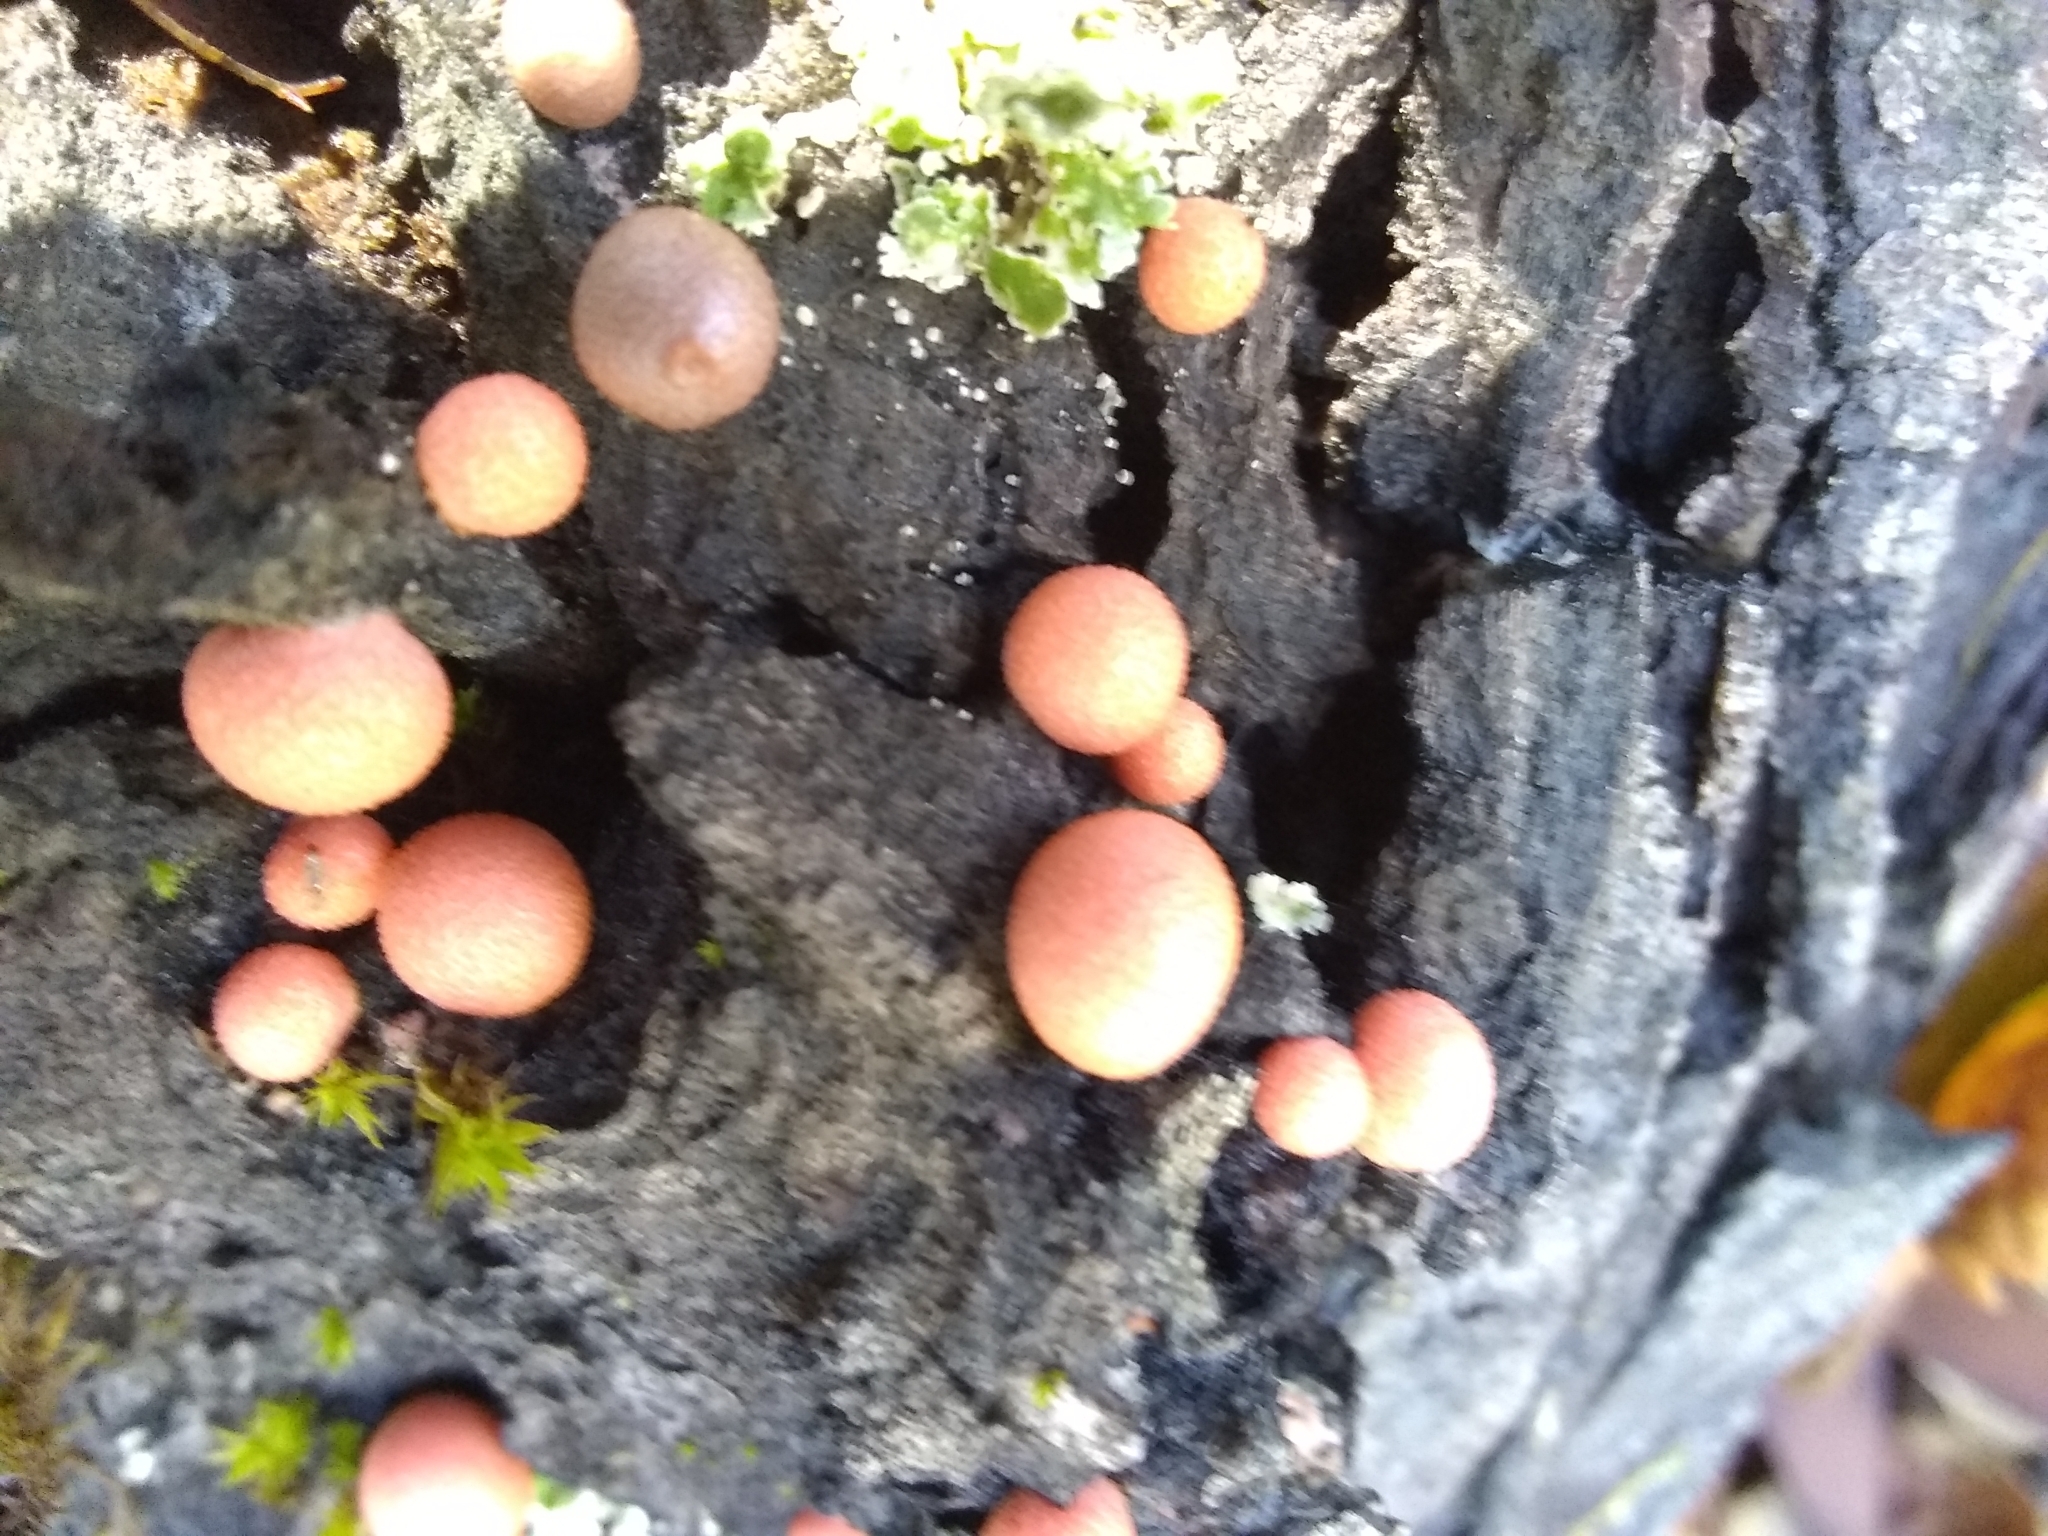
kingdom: Protozoa
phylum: Mycetozoa
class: Myxomycetes
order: Cribrariales
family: Tubiferaceae
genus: Lycogala
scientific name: Lycogala epidendrum
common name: Wolf's milk
